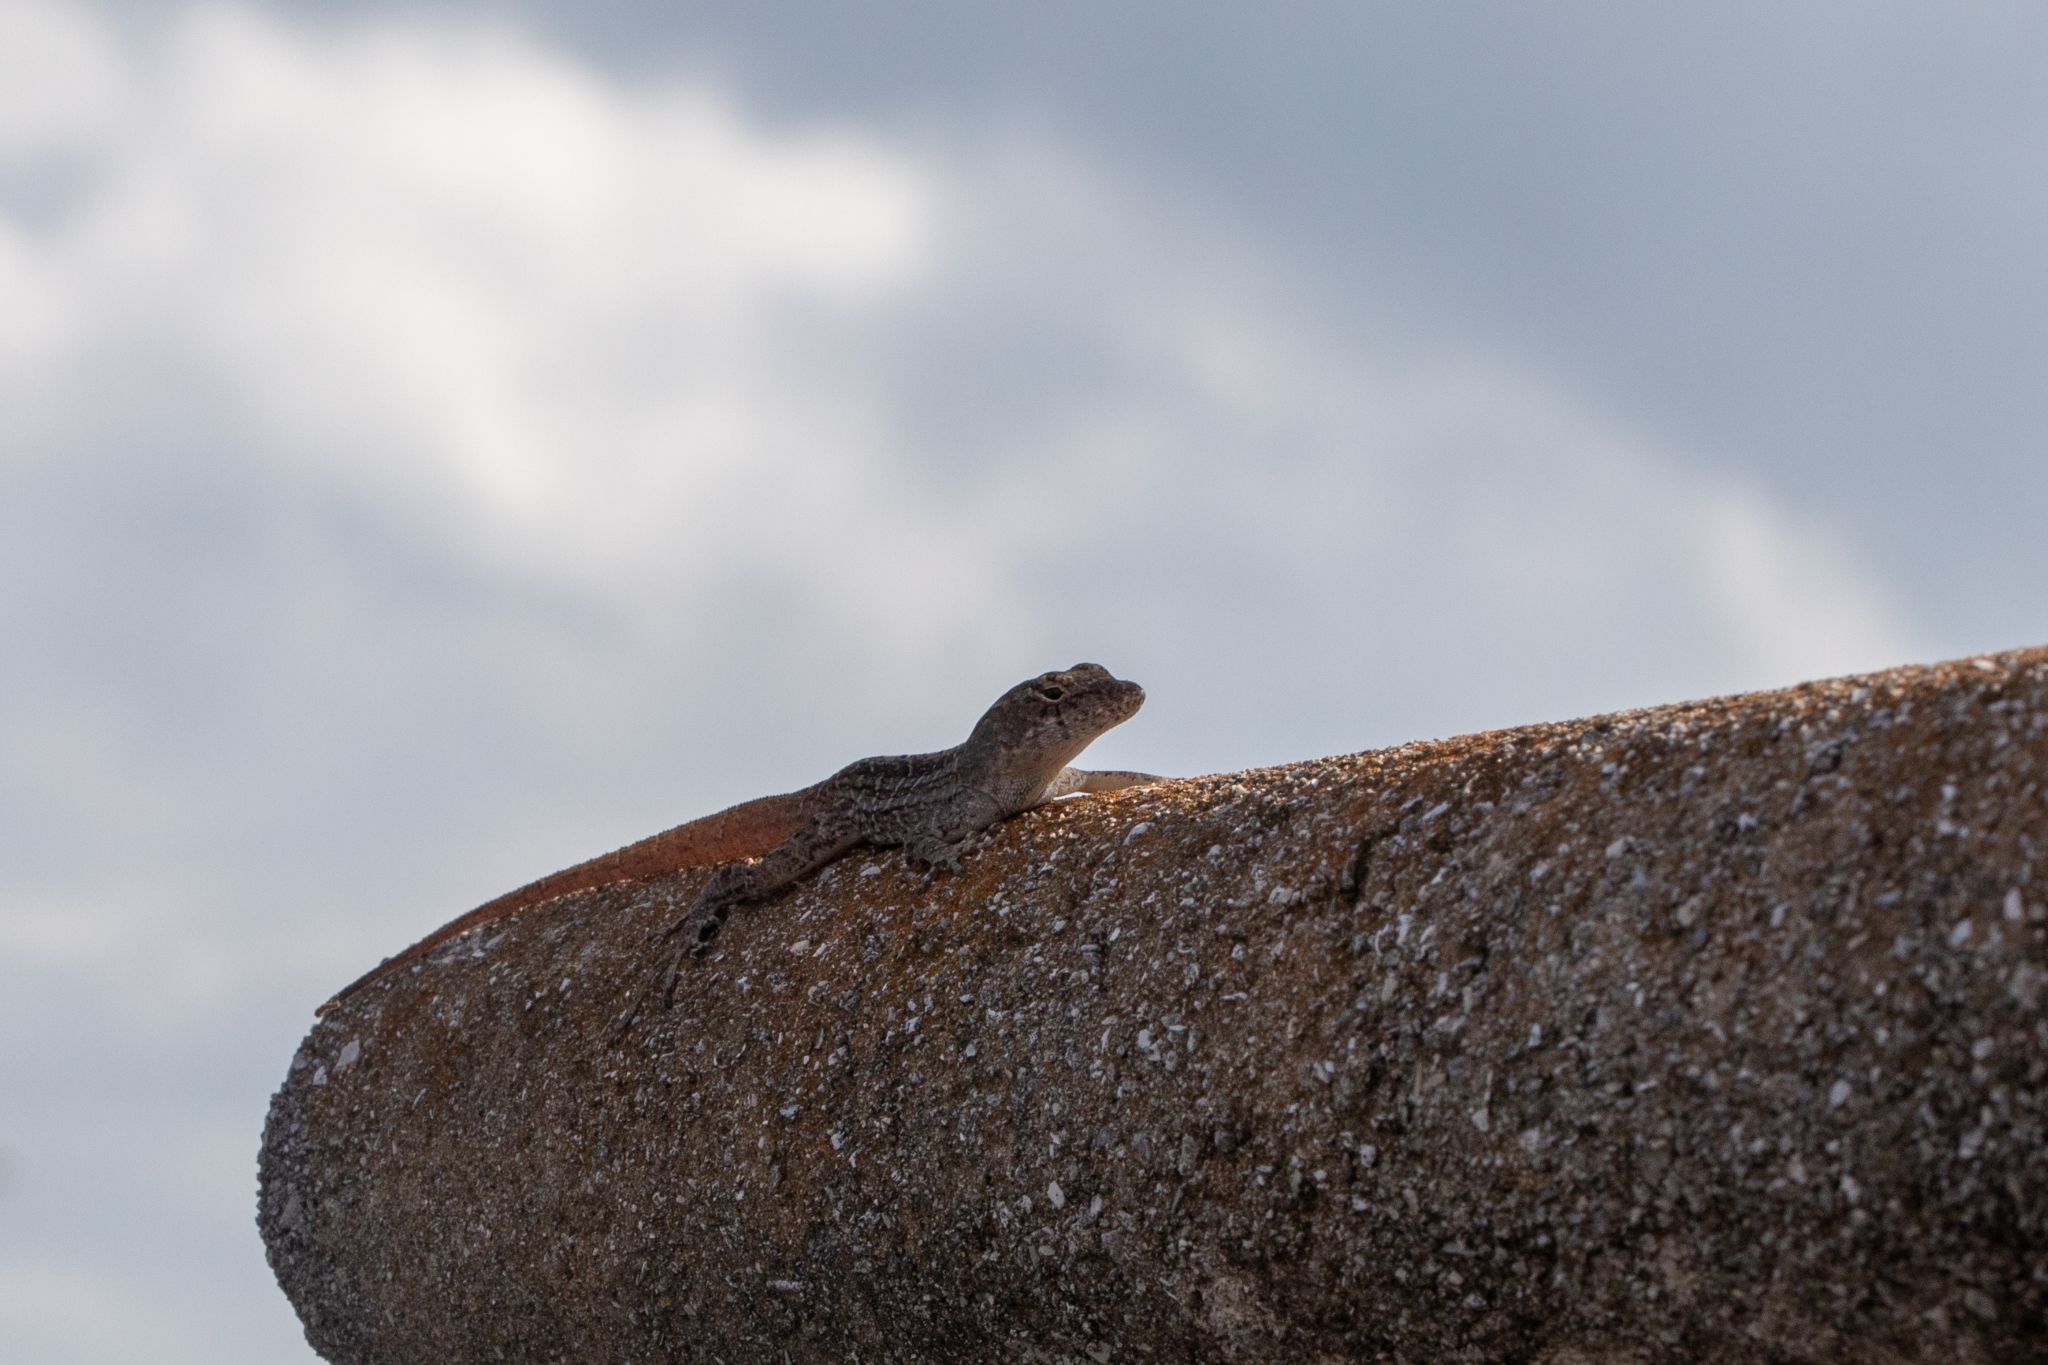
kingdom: Animalia
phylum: Chordata
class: Squamata
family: Dactyloidae
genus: Anolis
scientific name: Anolis sagrei
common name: Brown anole
